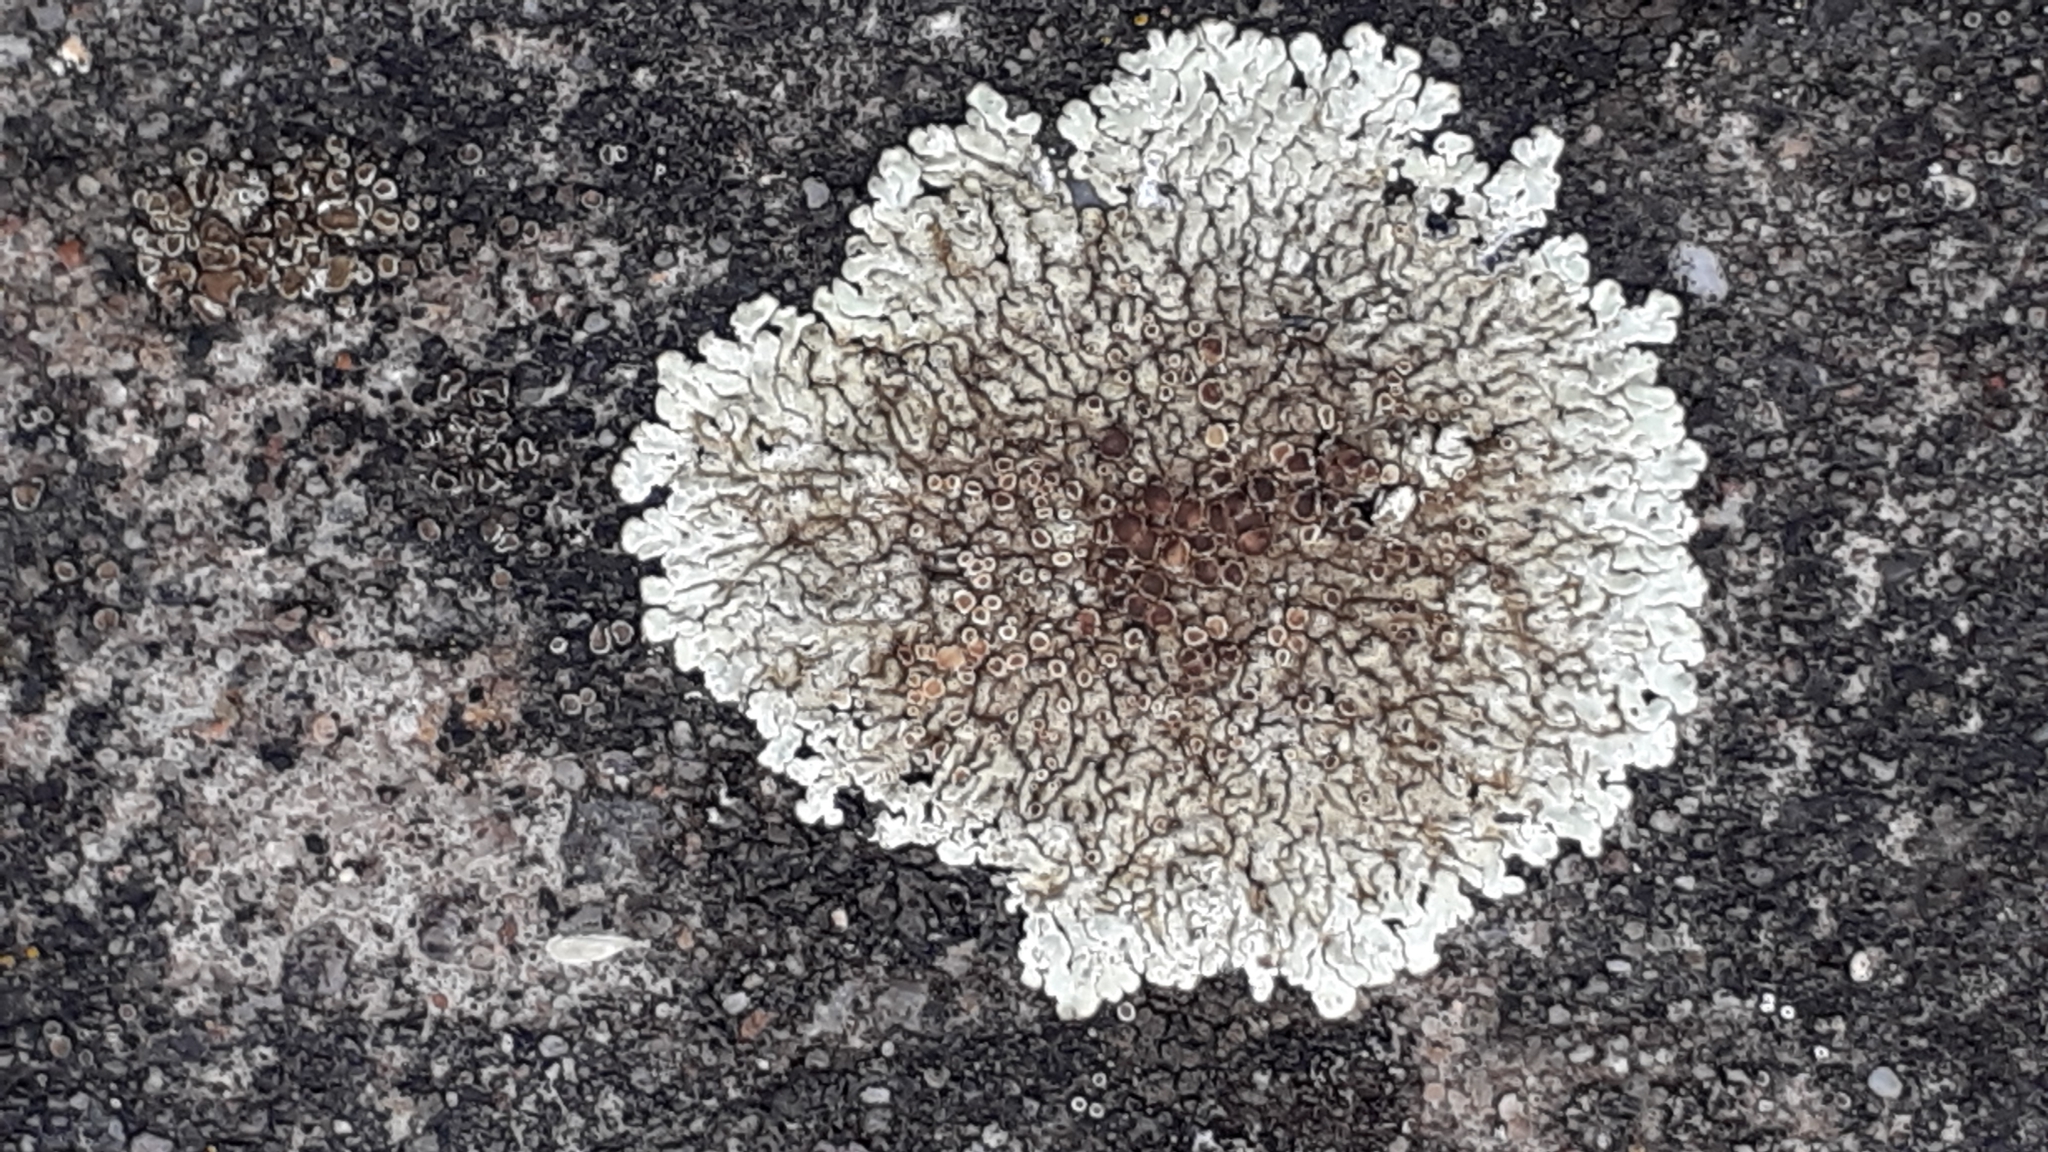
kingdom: Fungi
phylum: Ascomycota
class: Lecanoromycetes
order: Lecanorales
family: Lecanoraceae
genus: Protoparmeliopsis
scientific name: Protoparmeliopsis muralis
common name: Stonewall rim lichen
